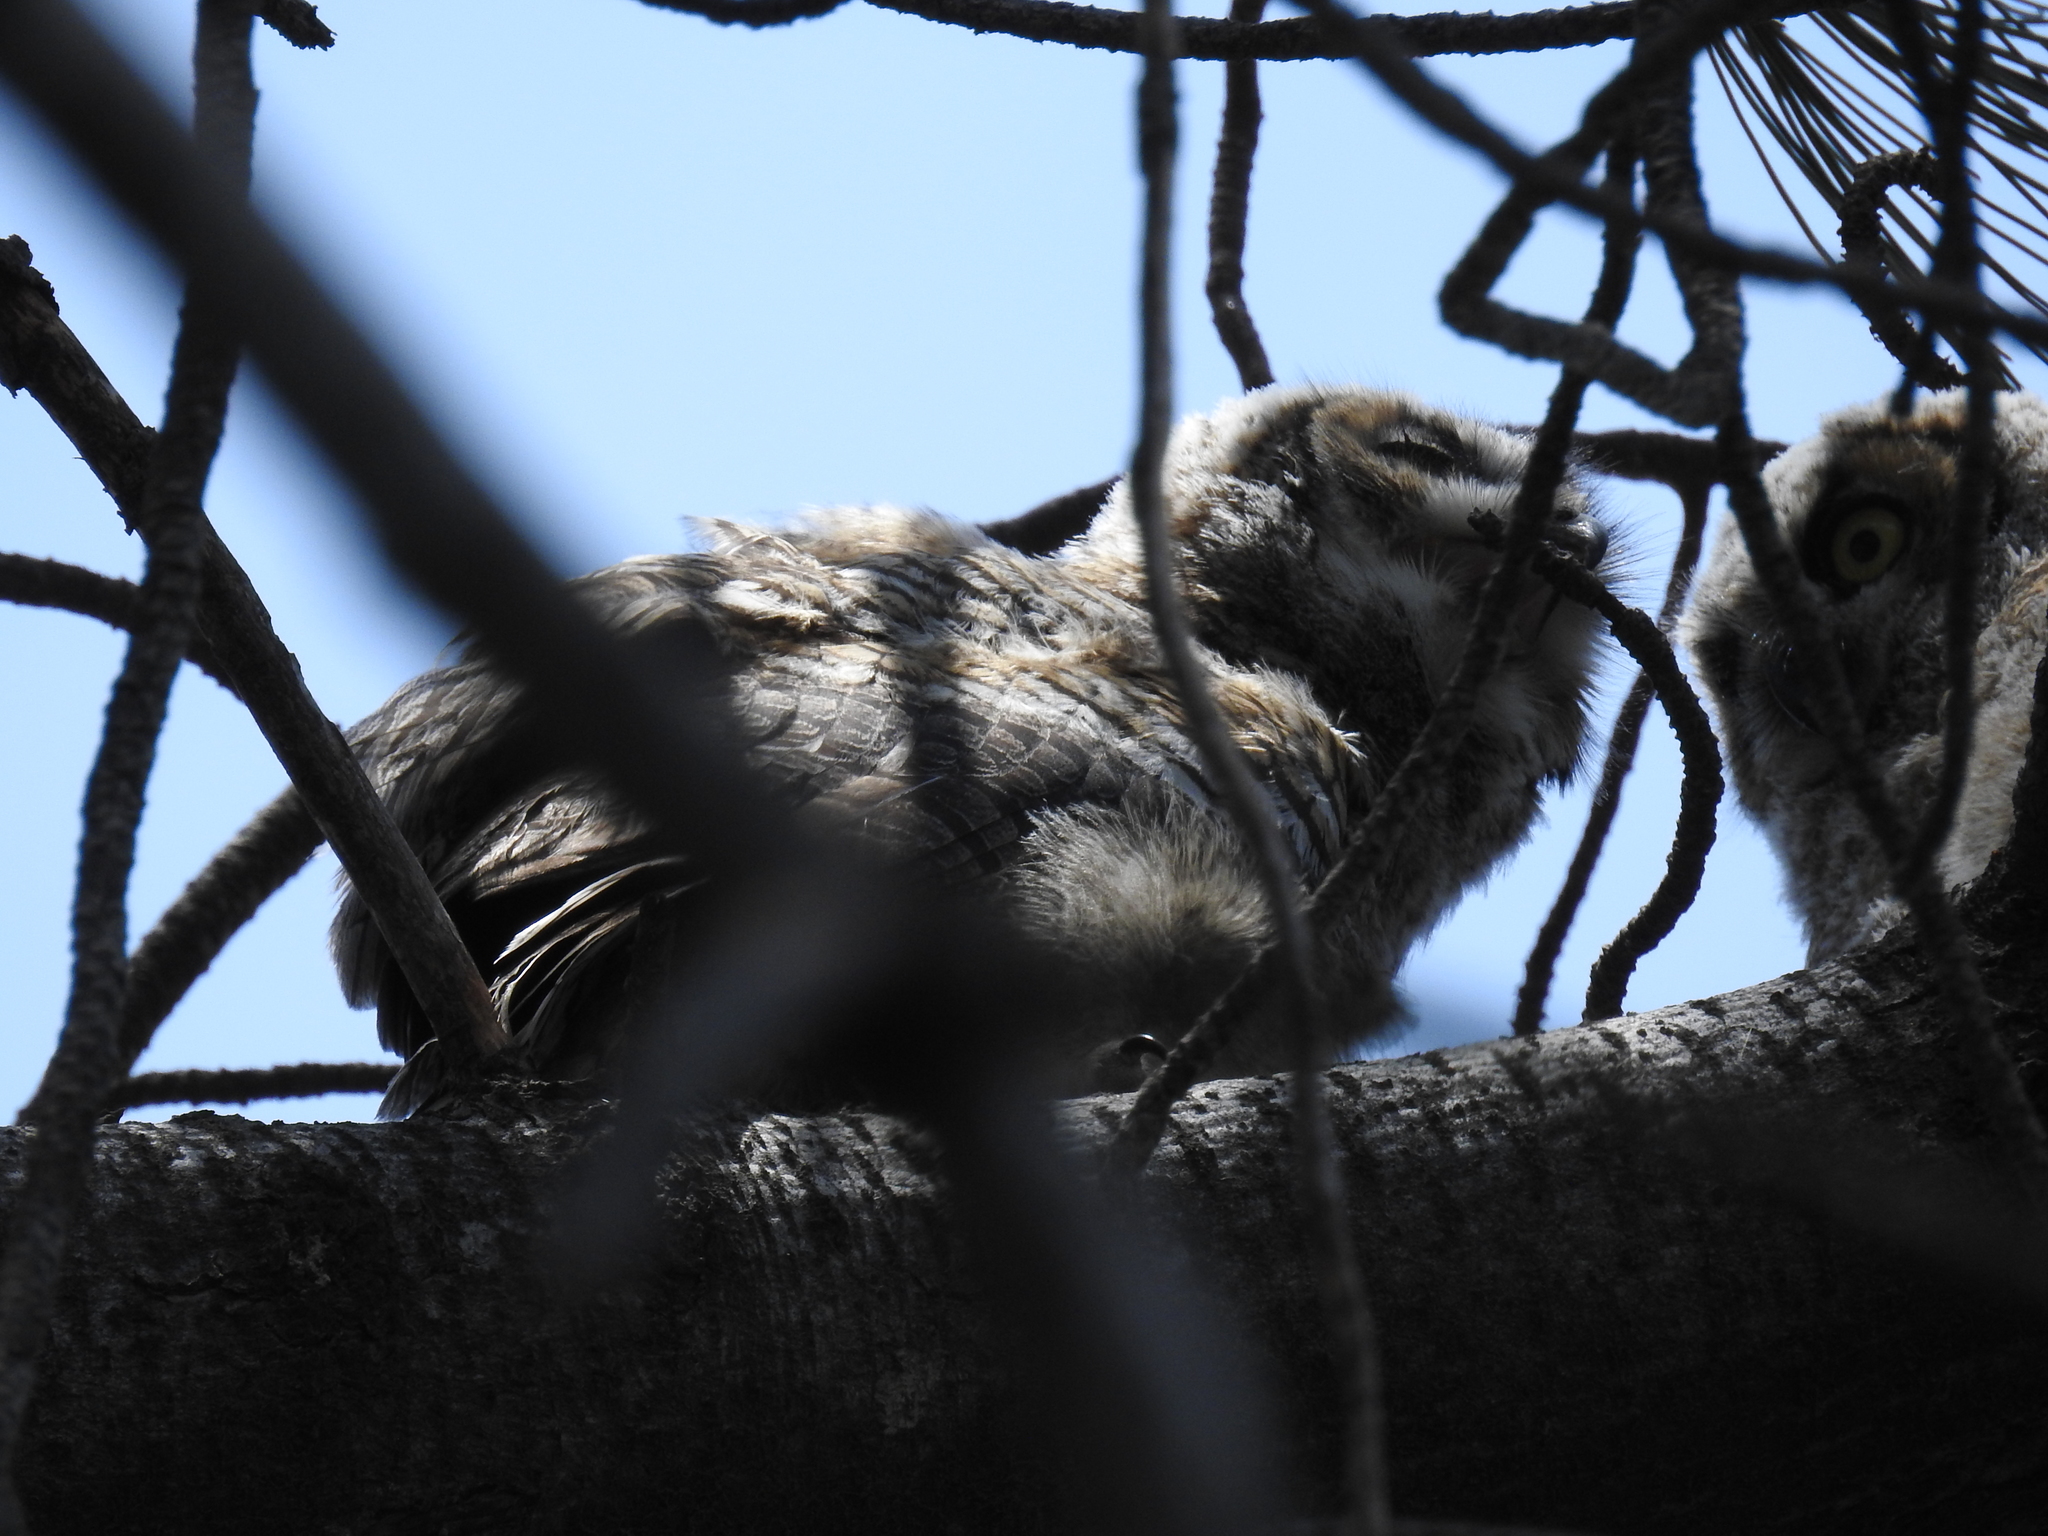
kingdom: Animalia
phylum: Chordata
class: Aves
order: Strigiformes
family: Strigidae
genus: Bubo
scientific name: Bubo virginianus
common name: Great horned owl
